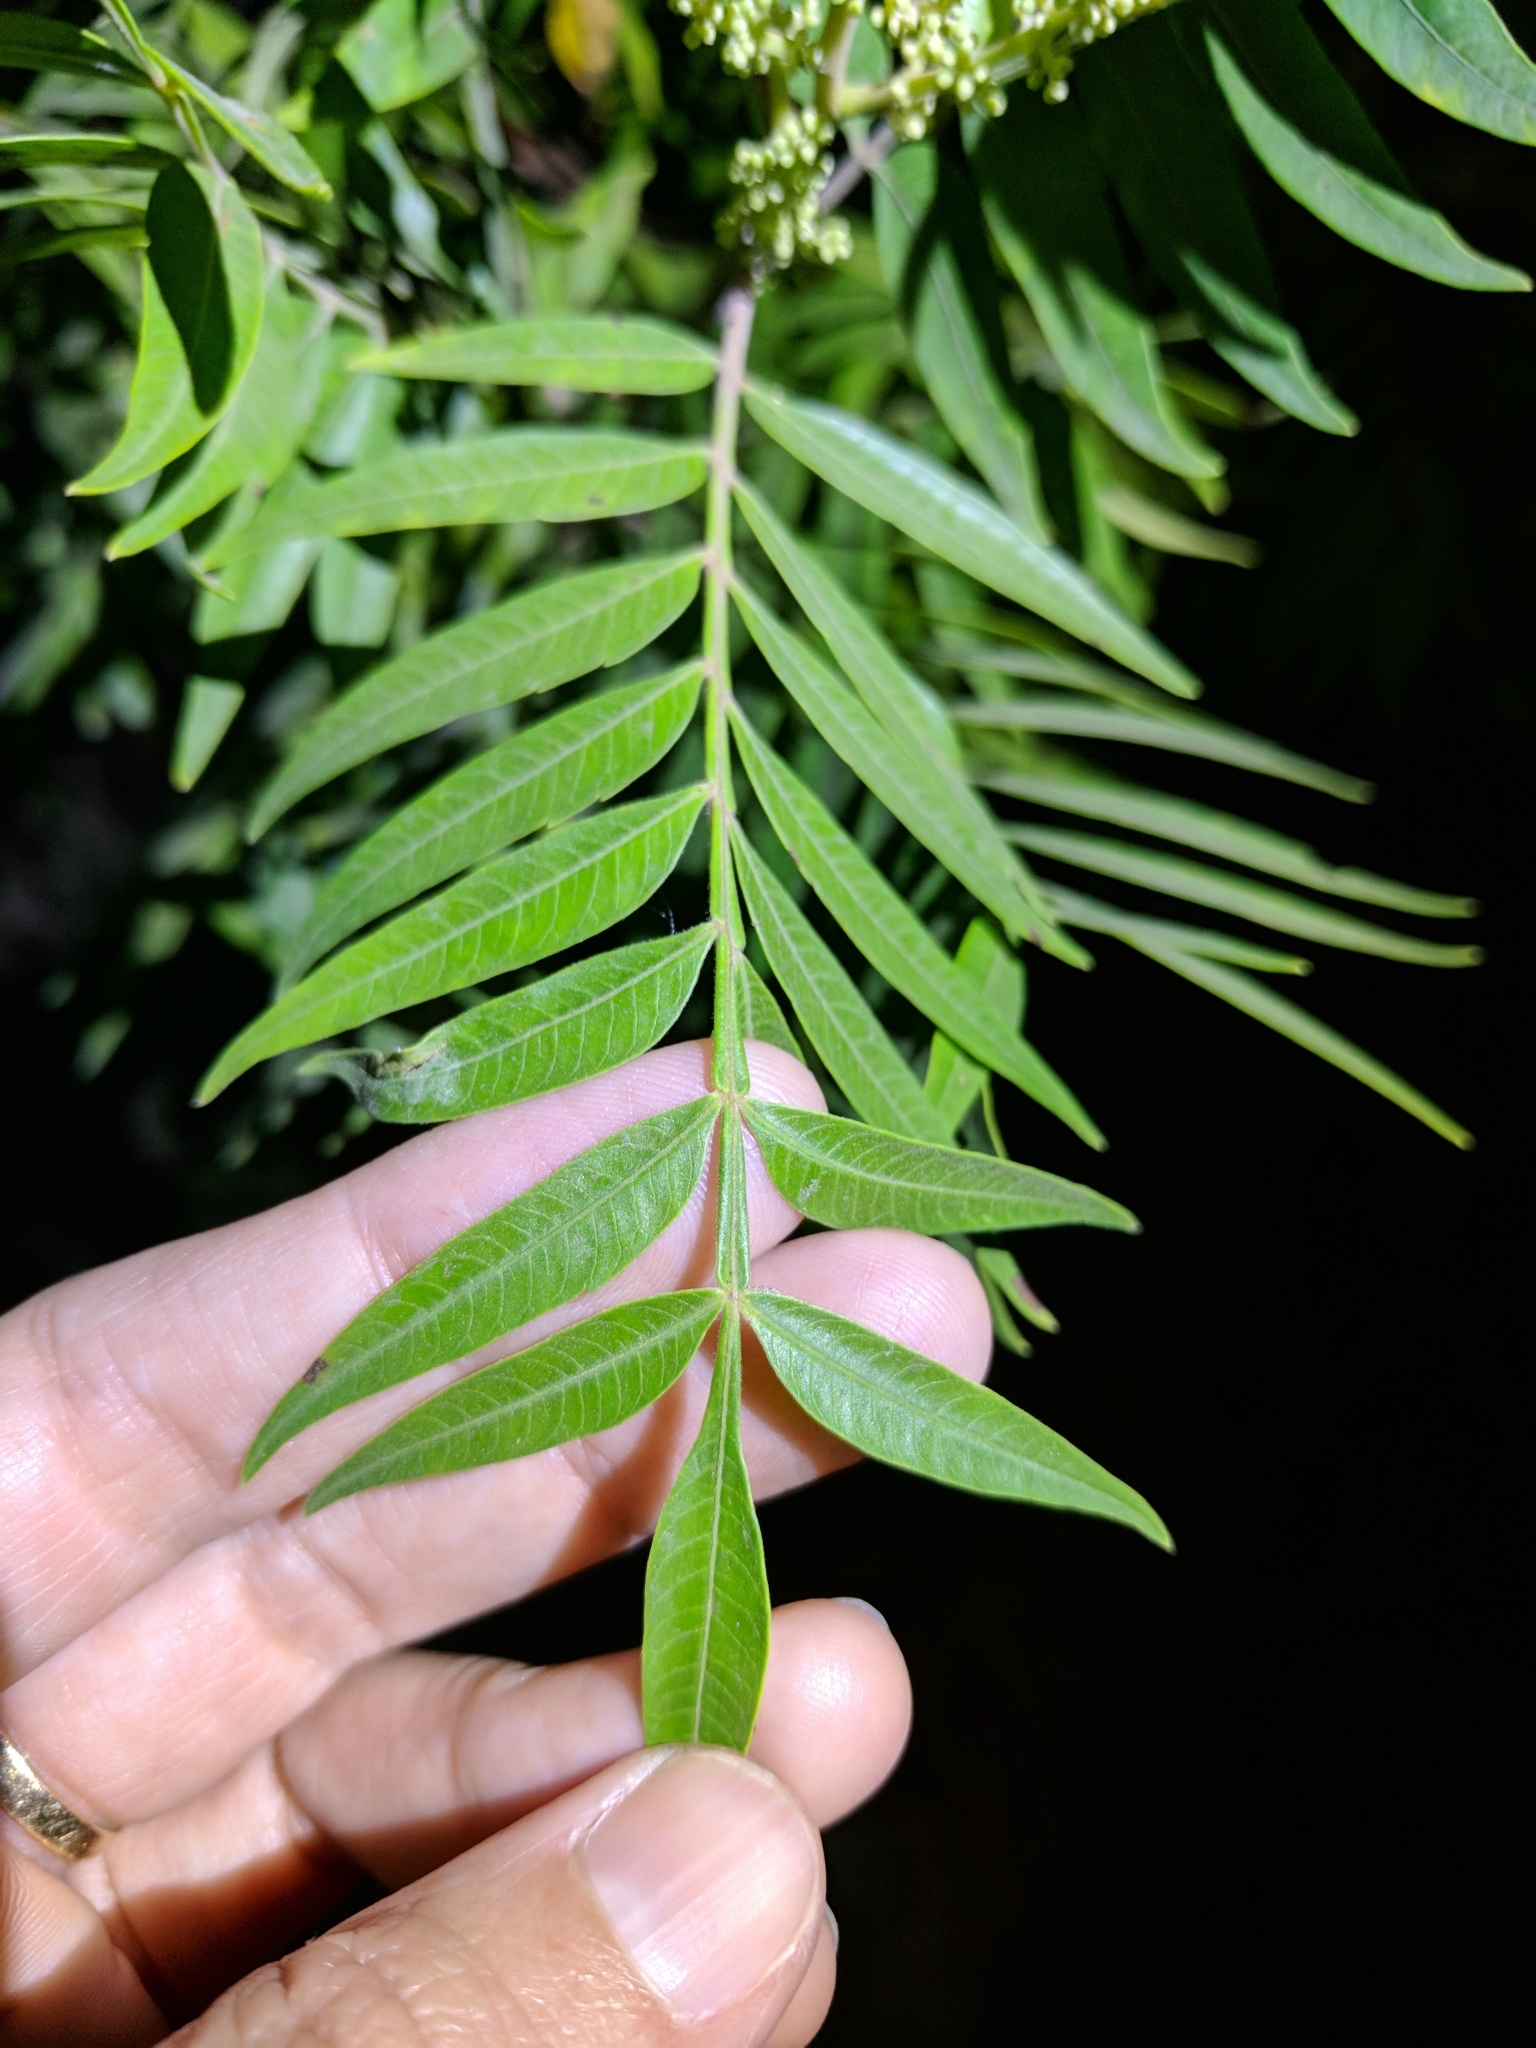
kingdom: Plantae
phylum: Tracheophyta
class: Magnoliopsida
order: Sapindales
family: Anacardiaceae
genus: Rhus
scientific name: Rhus lanceolata
